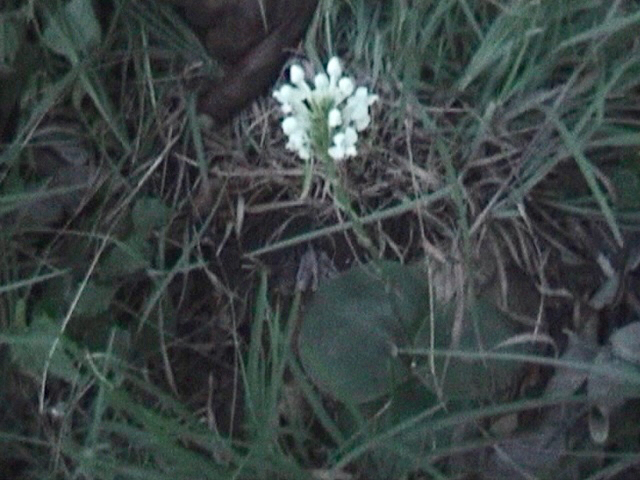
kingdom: Plantae
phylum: Tracheophyta
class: Liliopsida
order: Asparagales
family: Orchidaceae
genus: Habenaria
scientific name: Habenaria roxburghii
